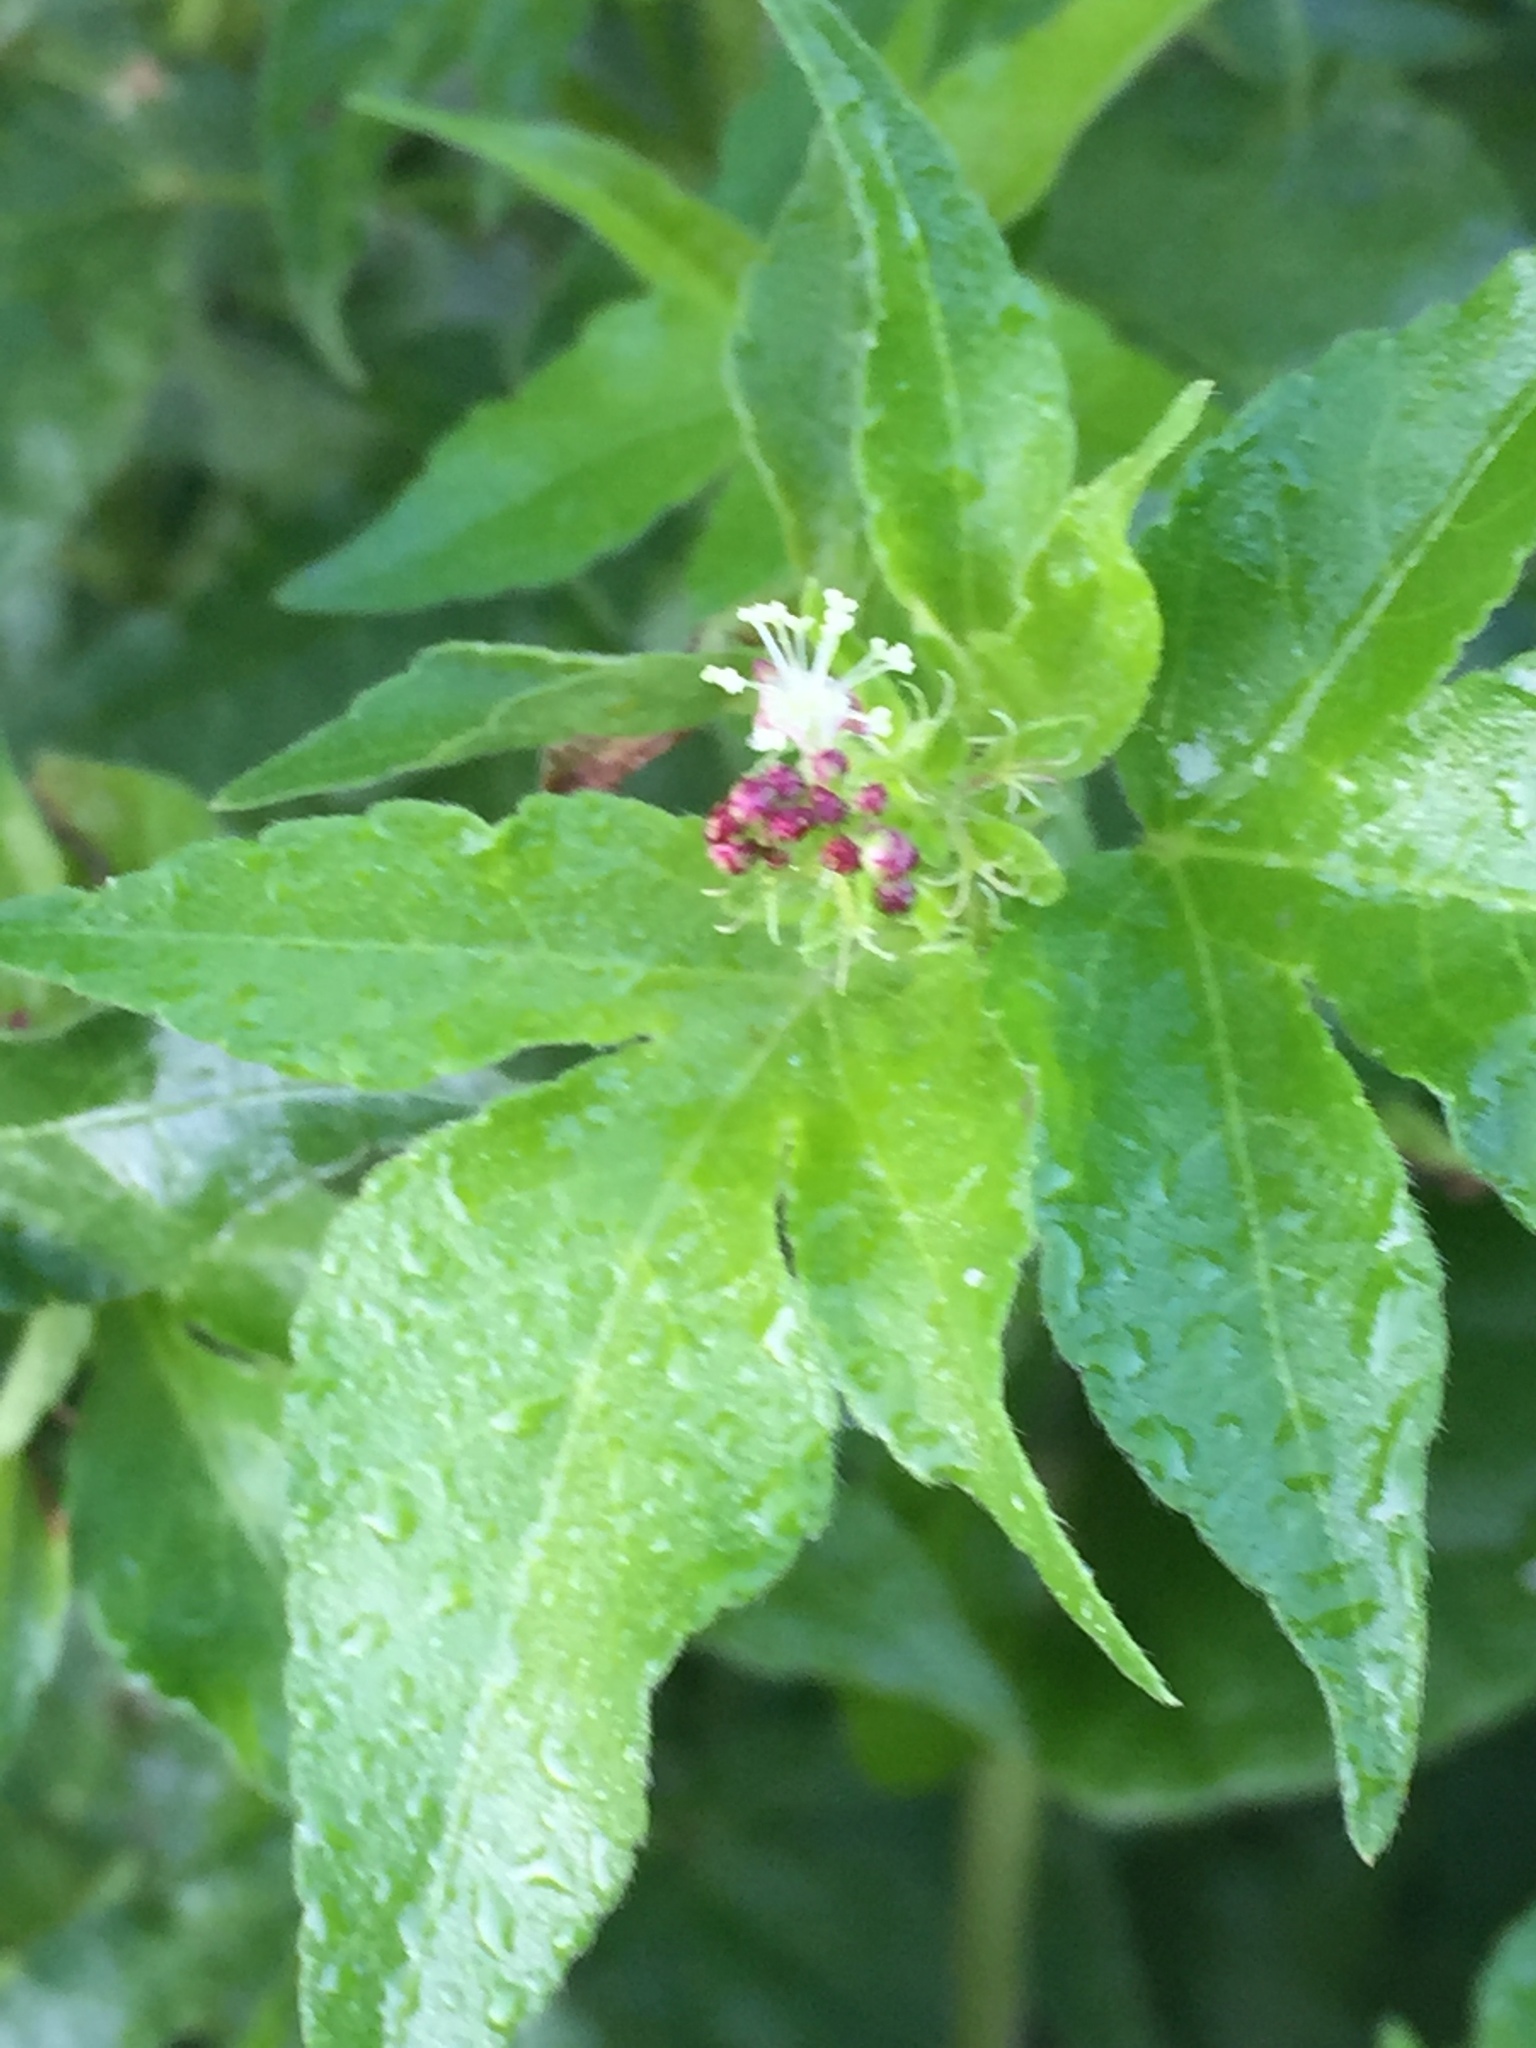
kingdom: Plantae
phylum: Tracheophyta
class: Magnoliopsida
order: Malpighiales
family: Euphorbiaceae
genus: Astraea
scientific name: Astraea lobata
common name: Lobed croton
